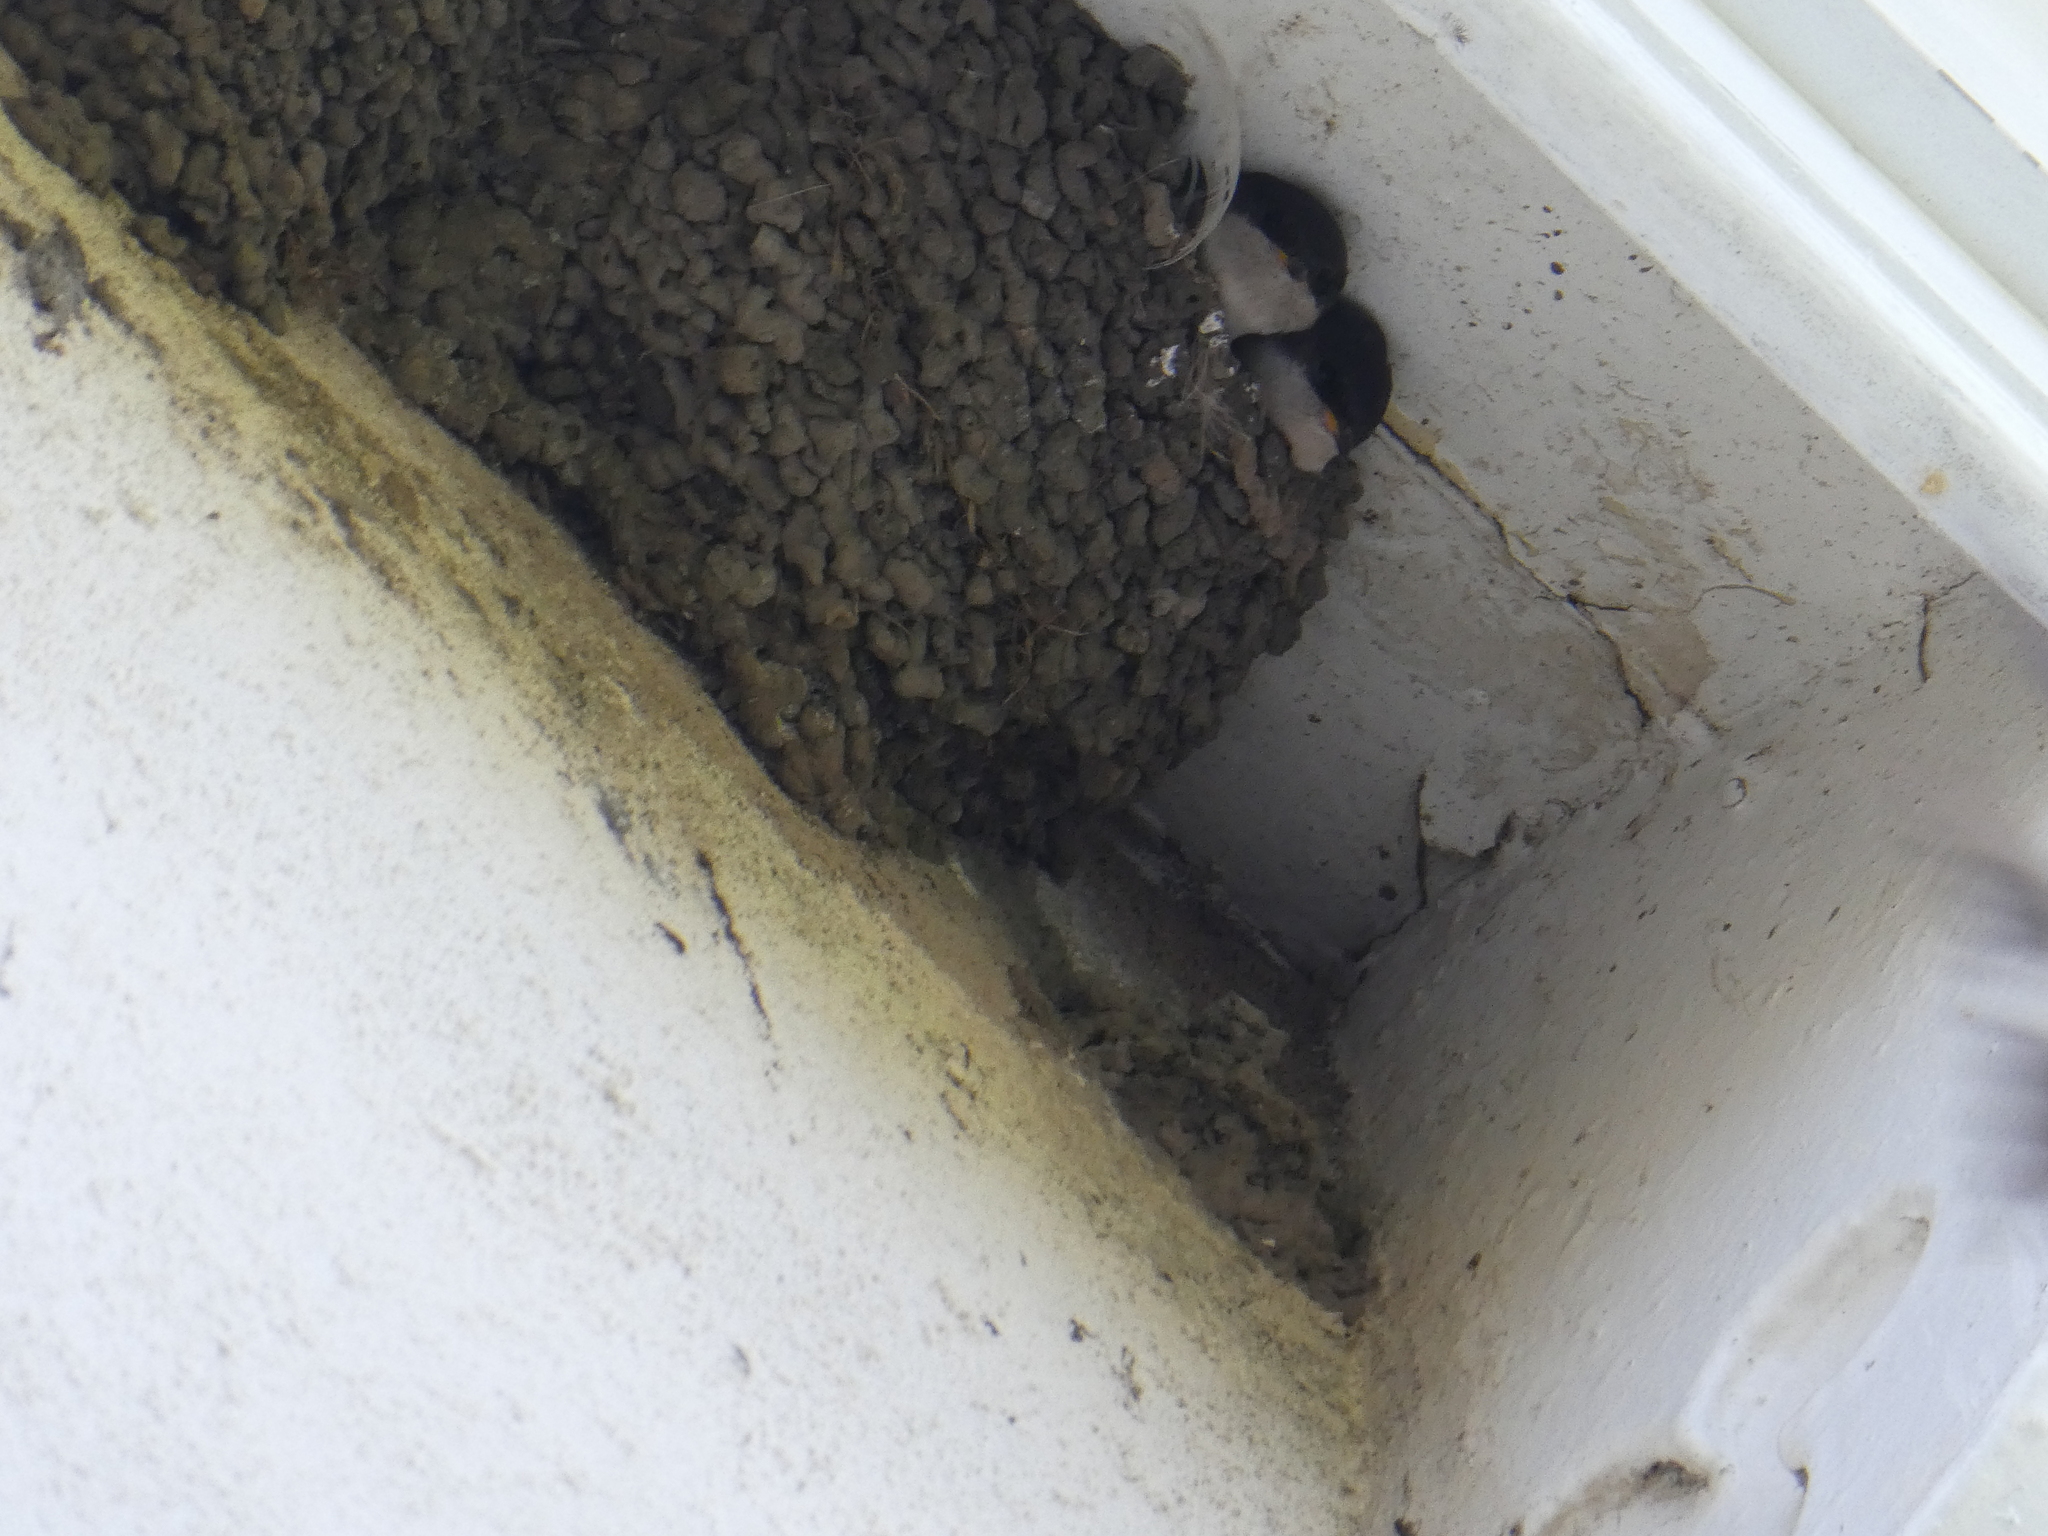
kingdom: Animalia
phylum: Chordata
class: Aves
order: Passeriformes
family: Hirundinidae
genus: Delichon
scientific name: Delichon urbicum
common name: Common house martin
